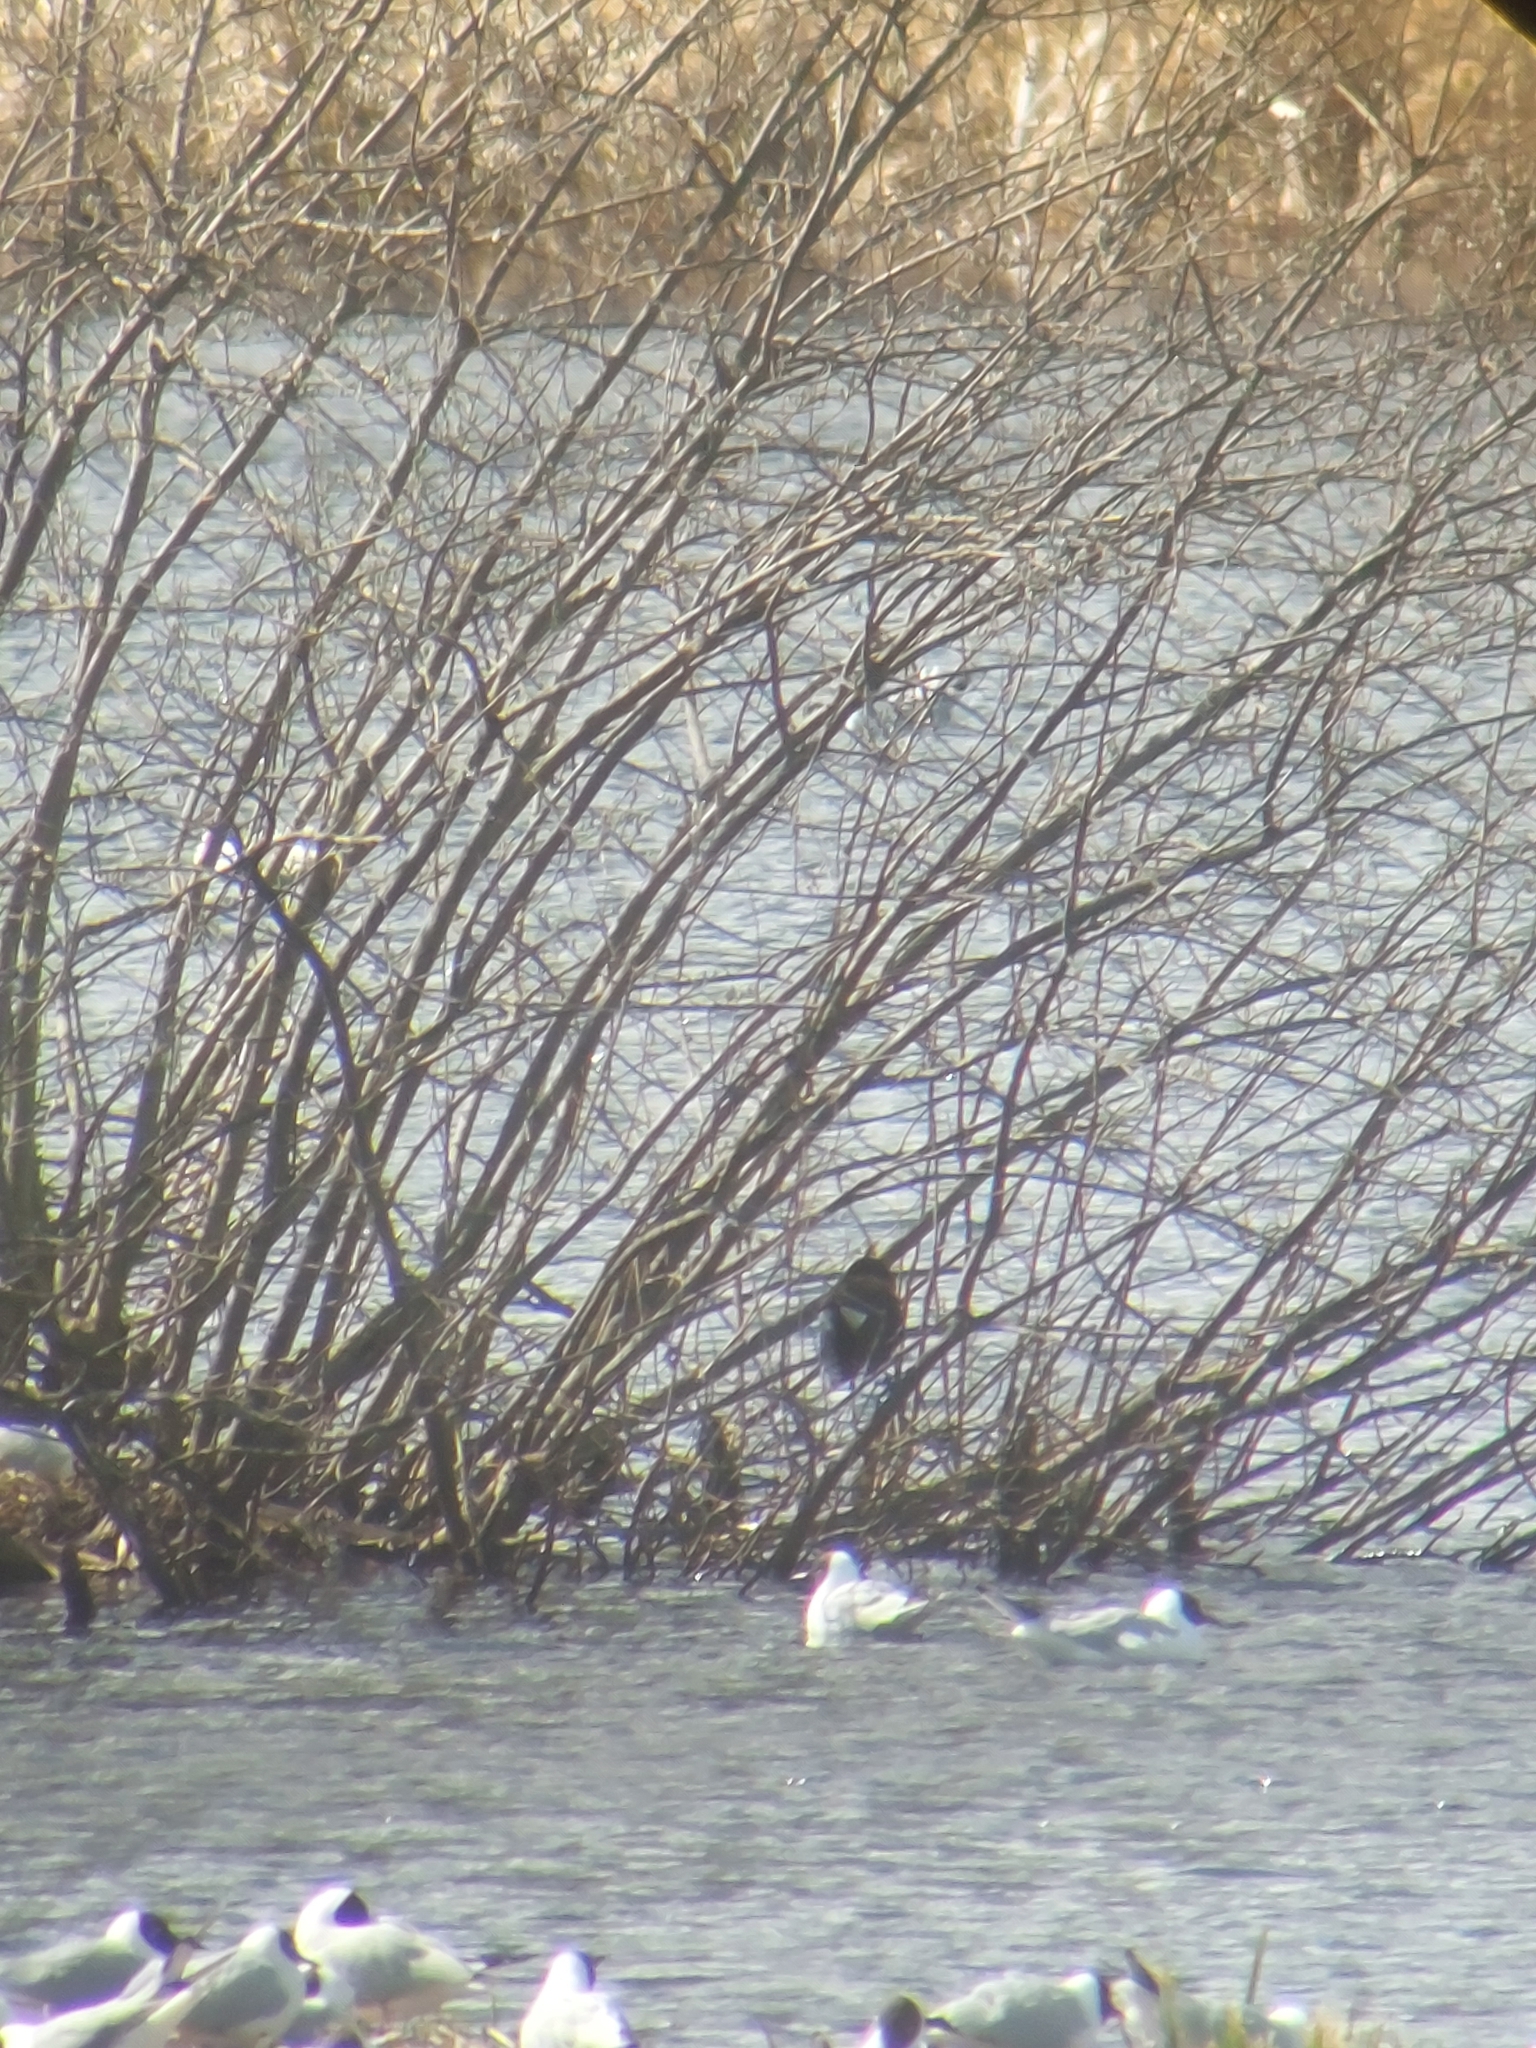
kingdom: Animalia
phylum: Chordata
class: Aves
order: Gruiformes
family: Rallidae
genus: Gallinula
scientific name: Gallinula chloropus
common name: Common moorhen
